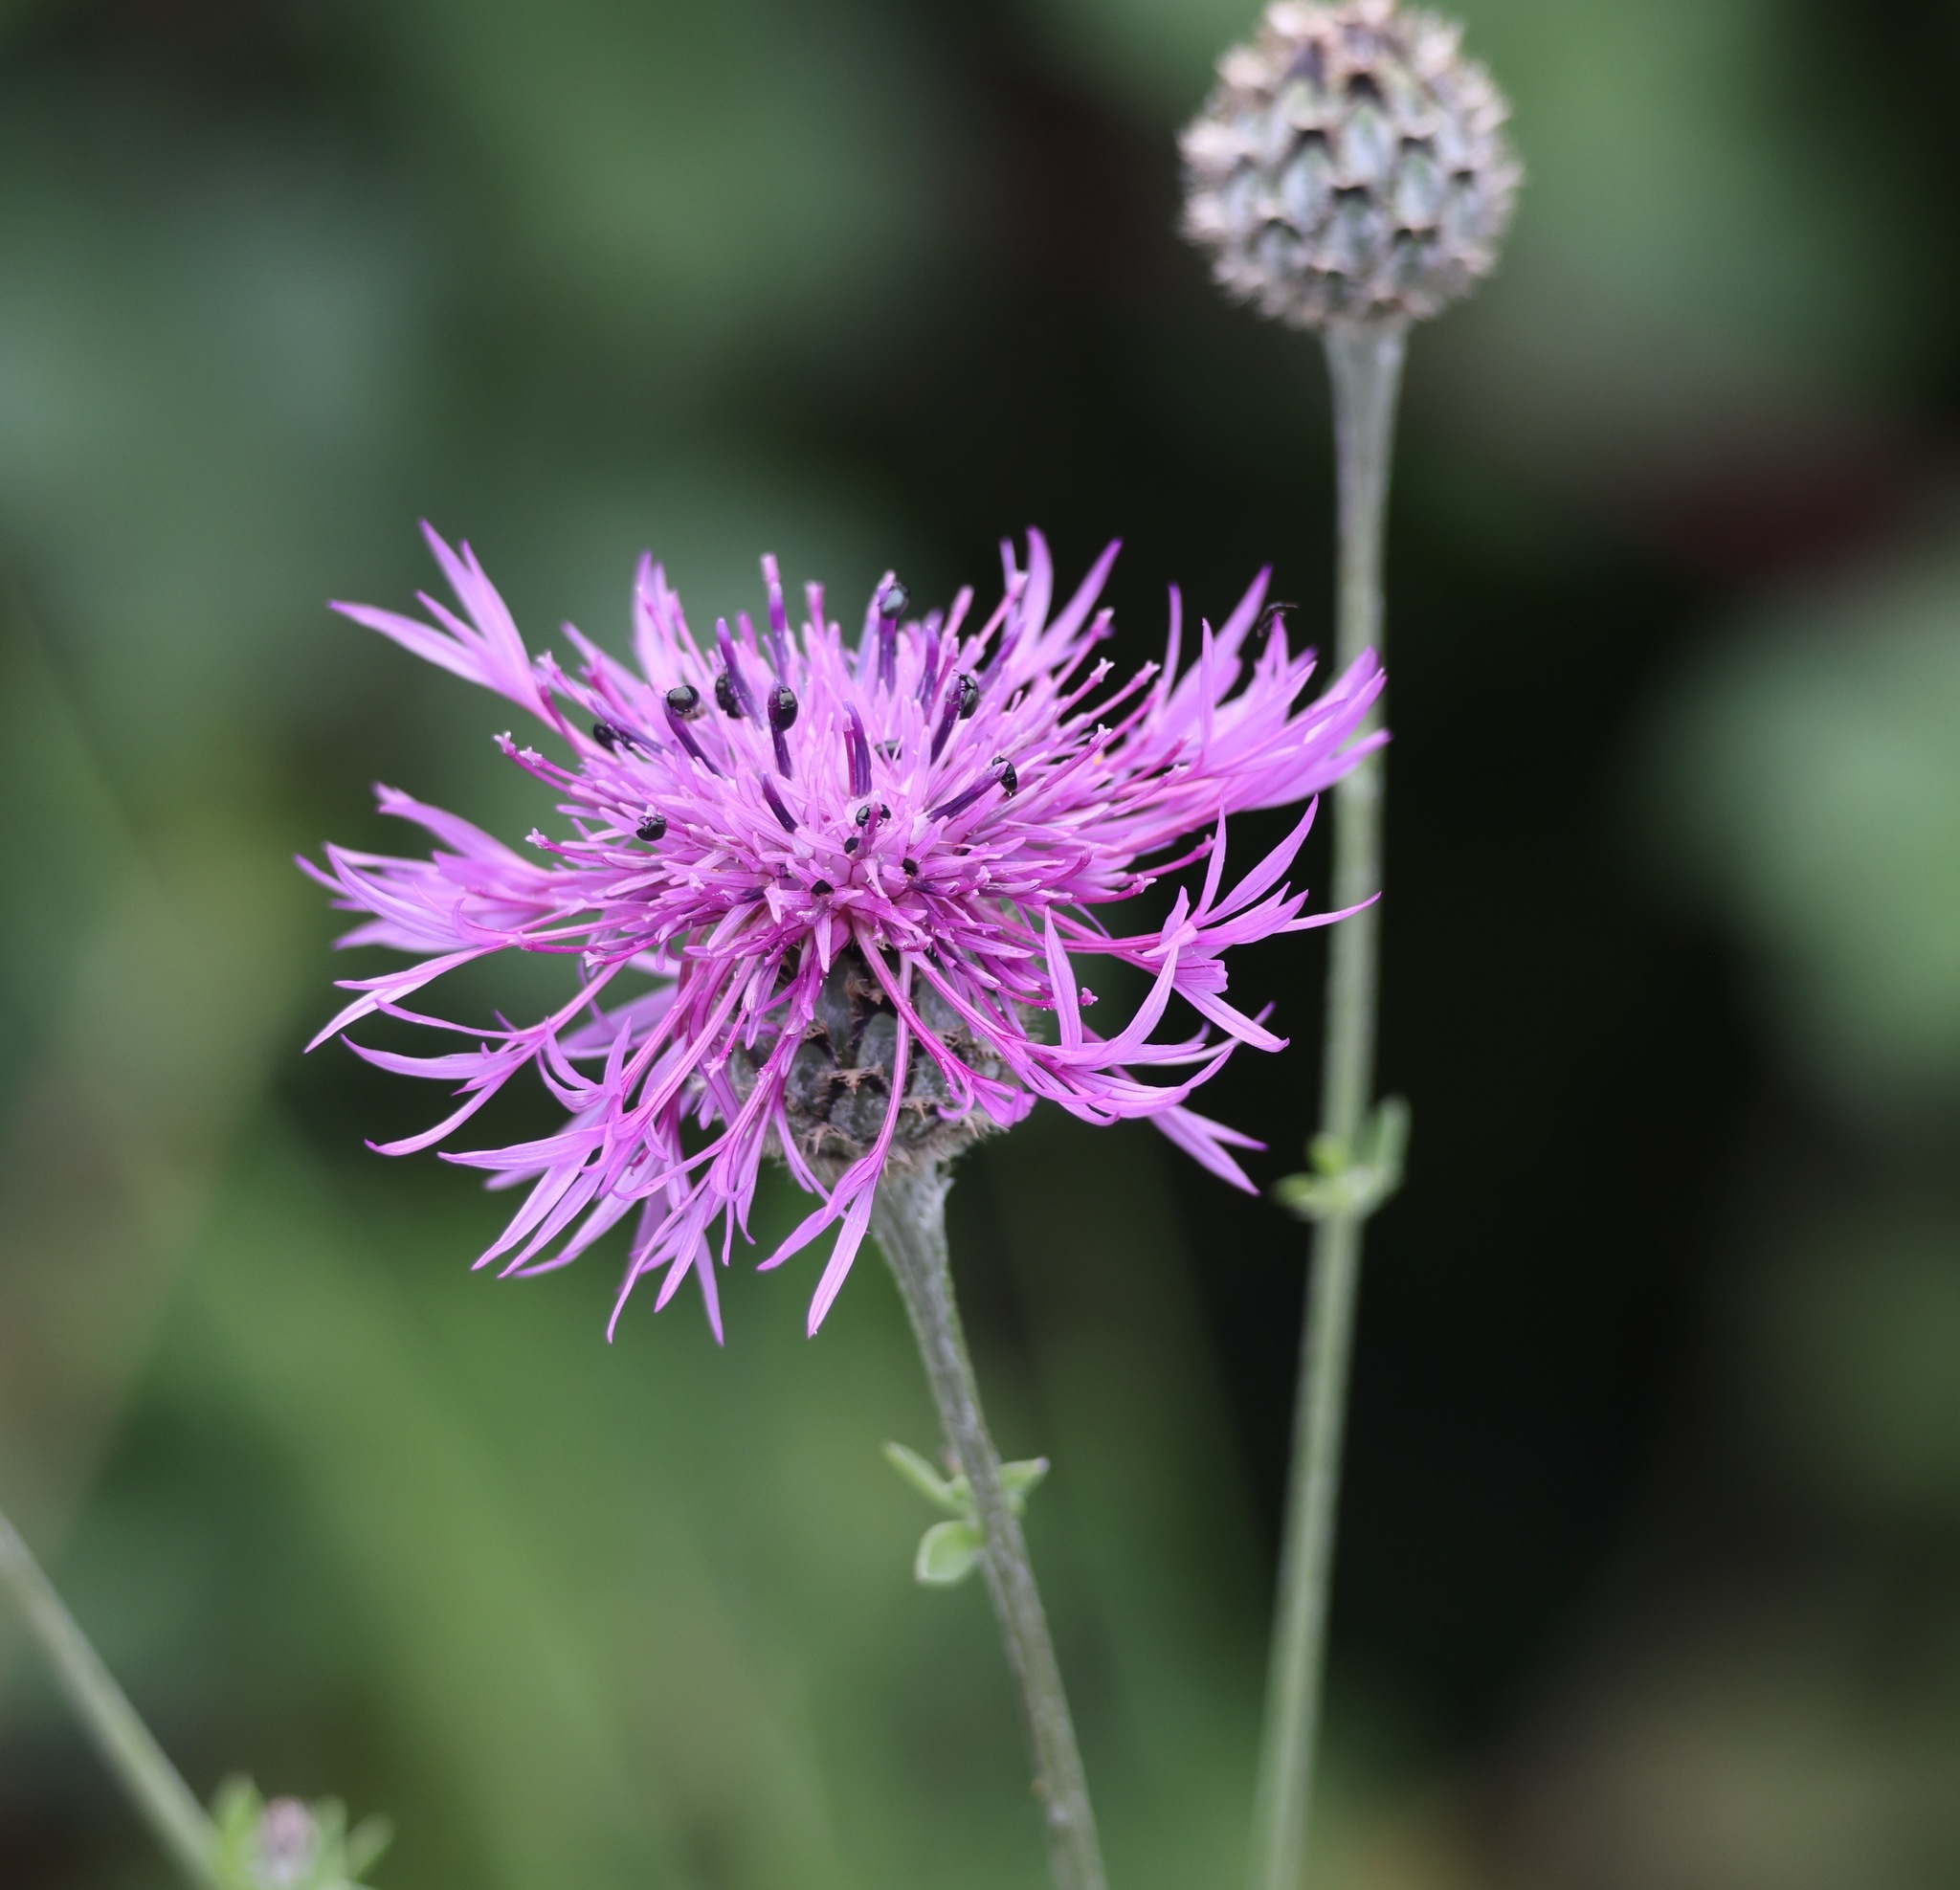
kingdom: Plantae
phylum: Tracheophyta
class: Magnoliopsida
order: Asterales
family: Asteraceae
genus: Centaurea
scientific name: Centaurea scabiosa
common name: Greater knapweed
